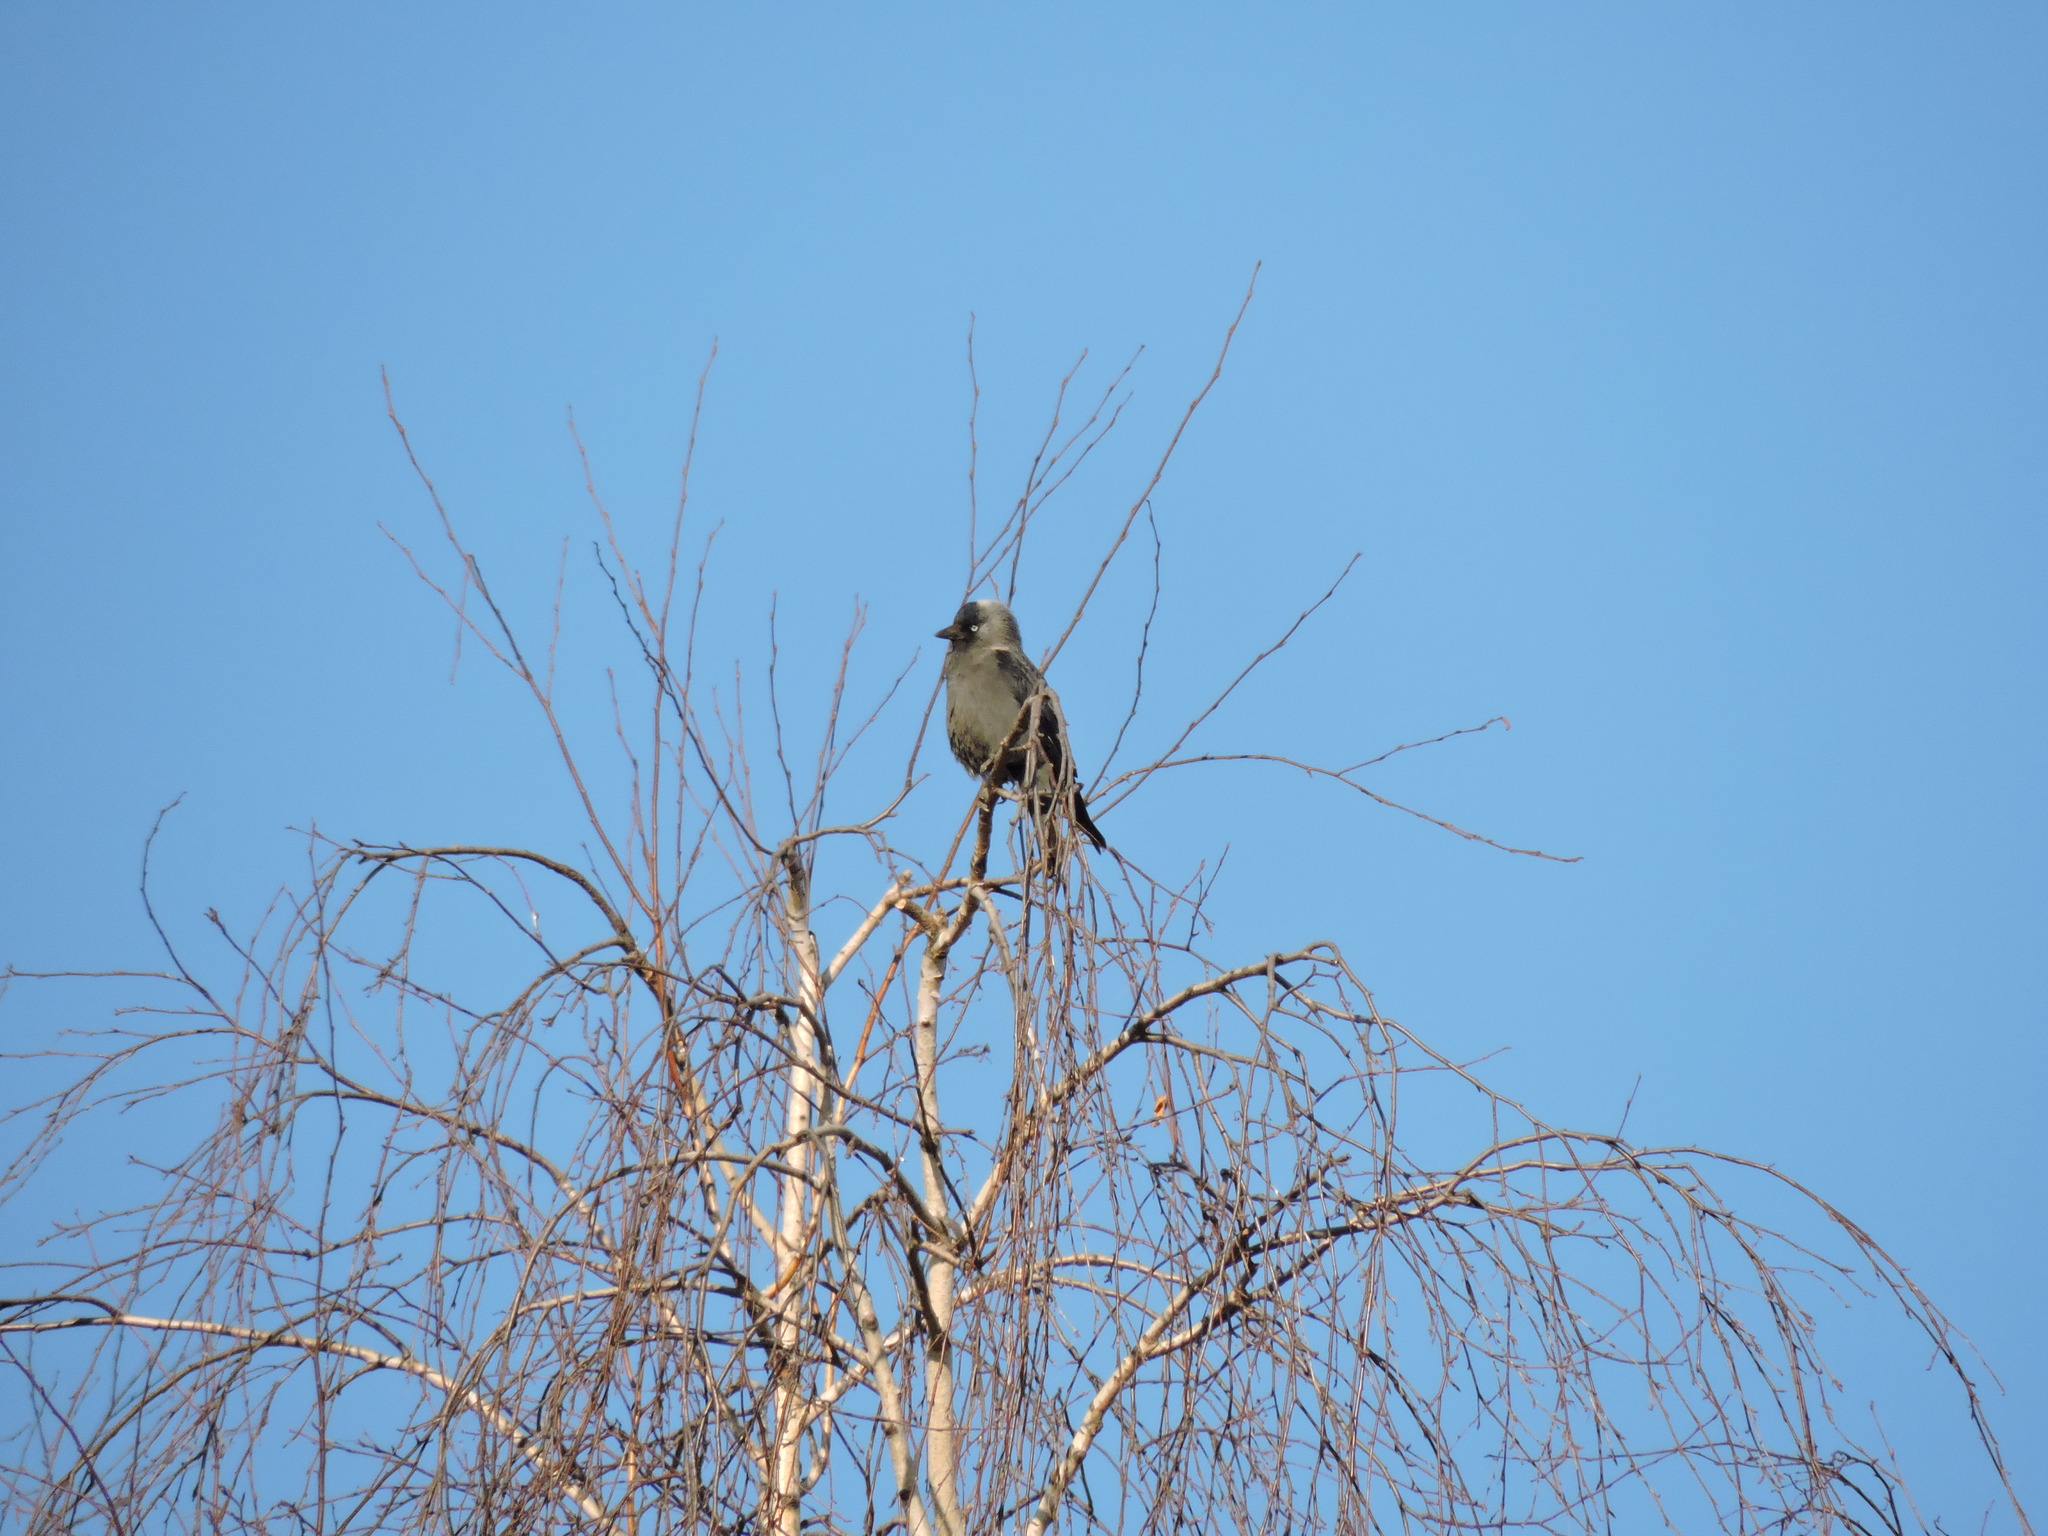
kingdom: Animalia
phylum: Chordata
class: Aves
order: Passeriformes
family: Corvidae
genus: Coloeus
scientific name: Coloeus monedula
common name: Western jackdaw
